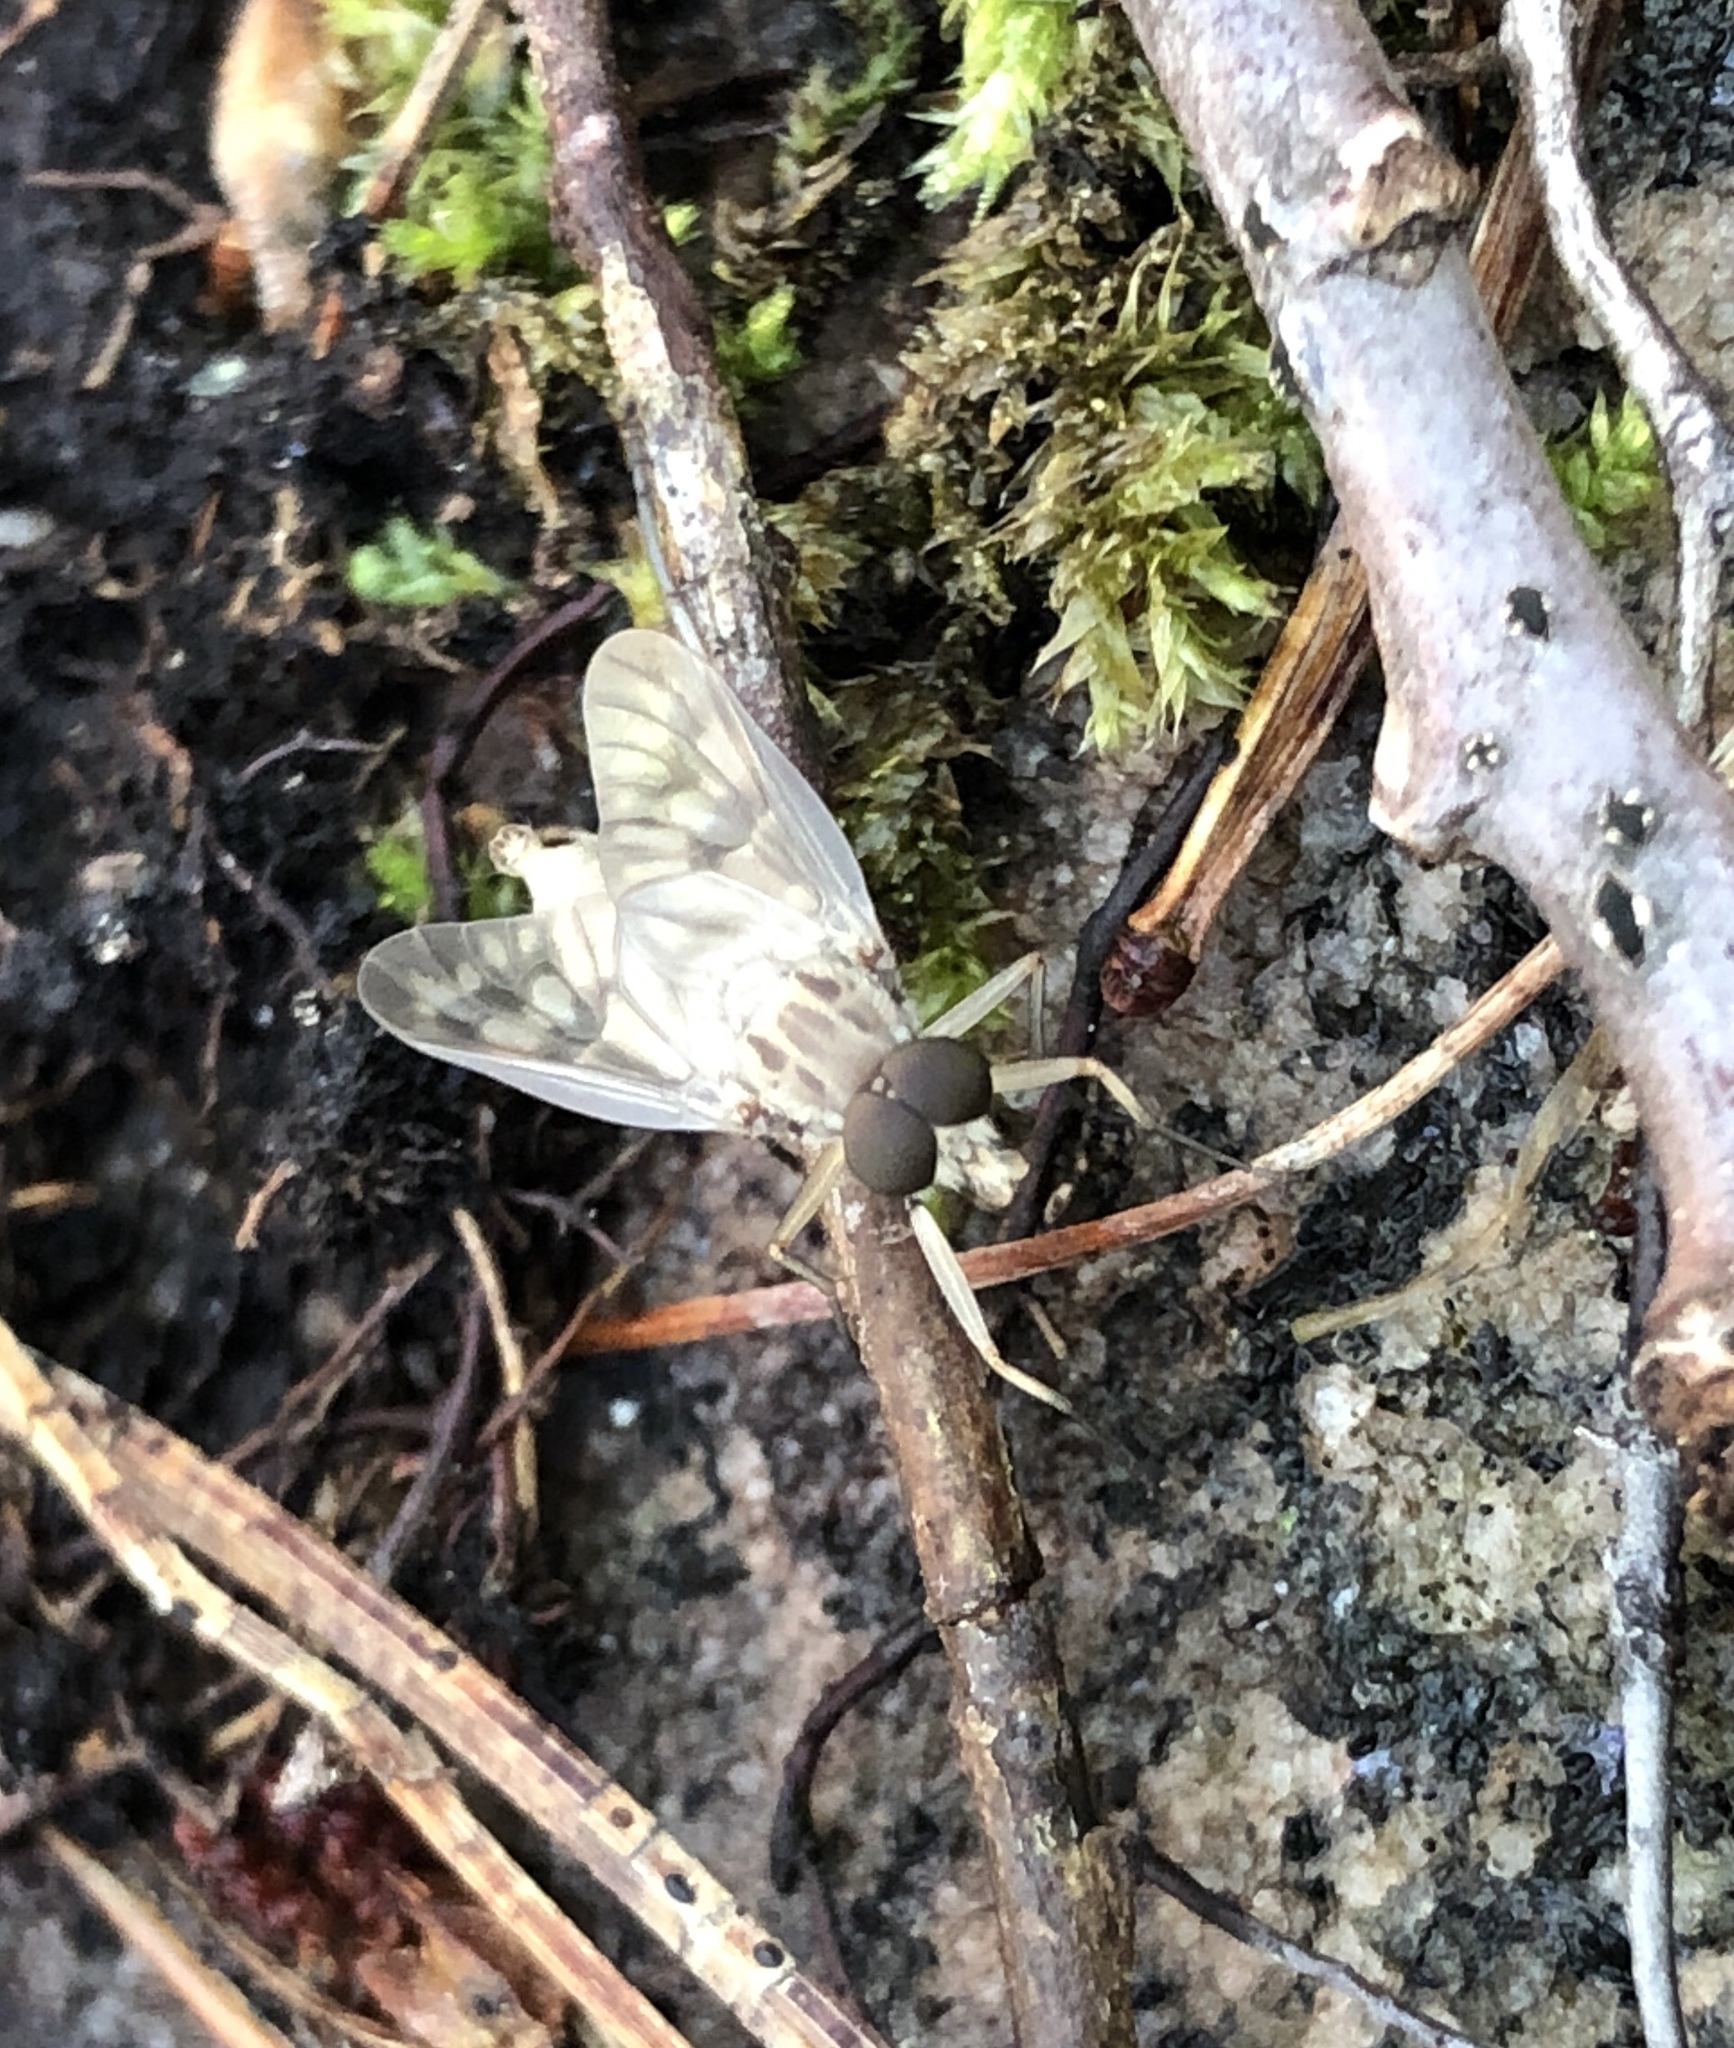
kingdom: Animalia
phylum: Arthropoda
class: Insecta
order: Diptera
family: Rhagionidae
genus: Rhagio
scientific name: Rhagio mystaceus
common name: Common snipe fly
